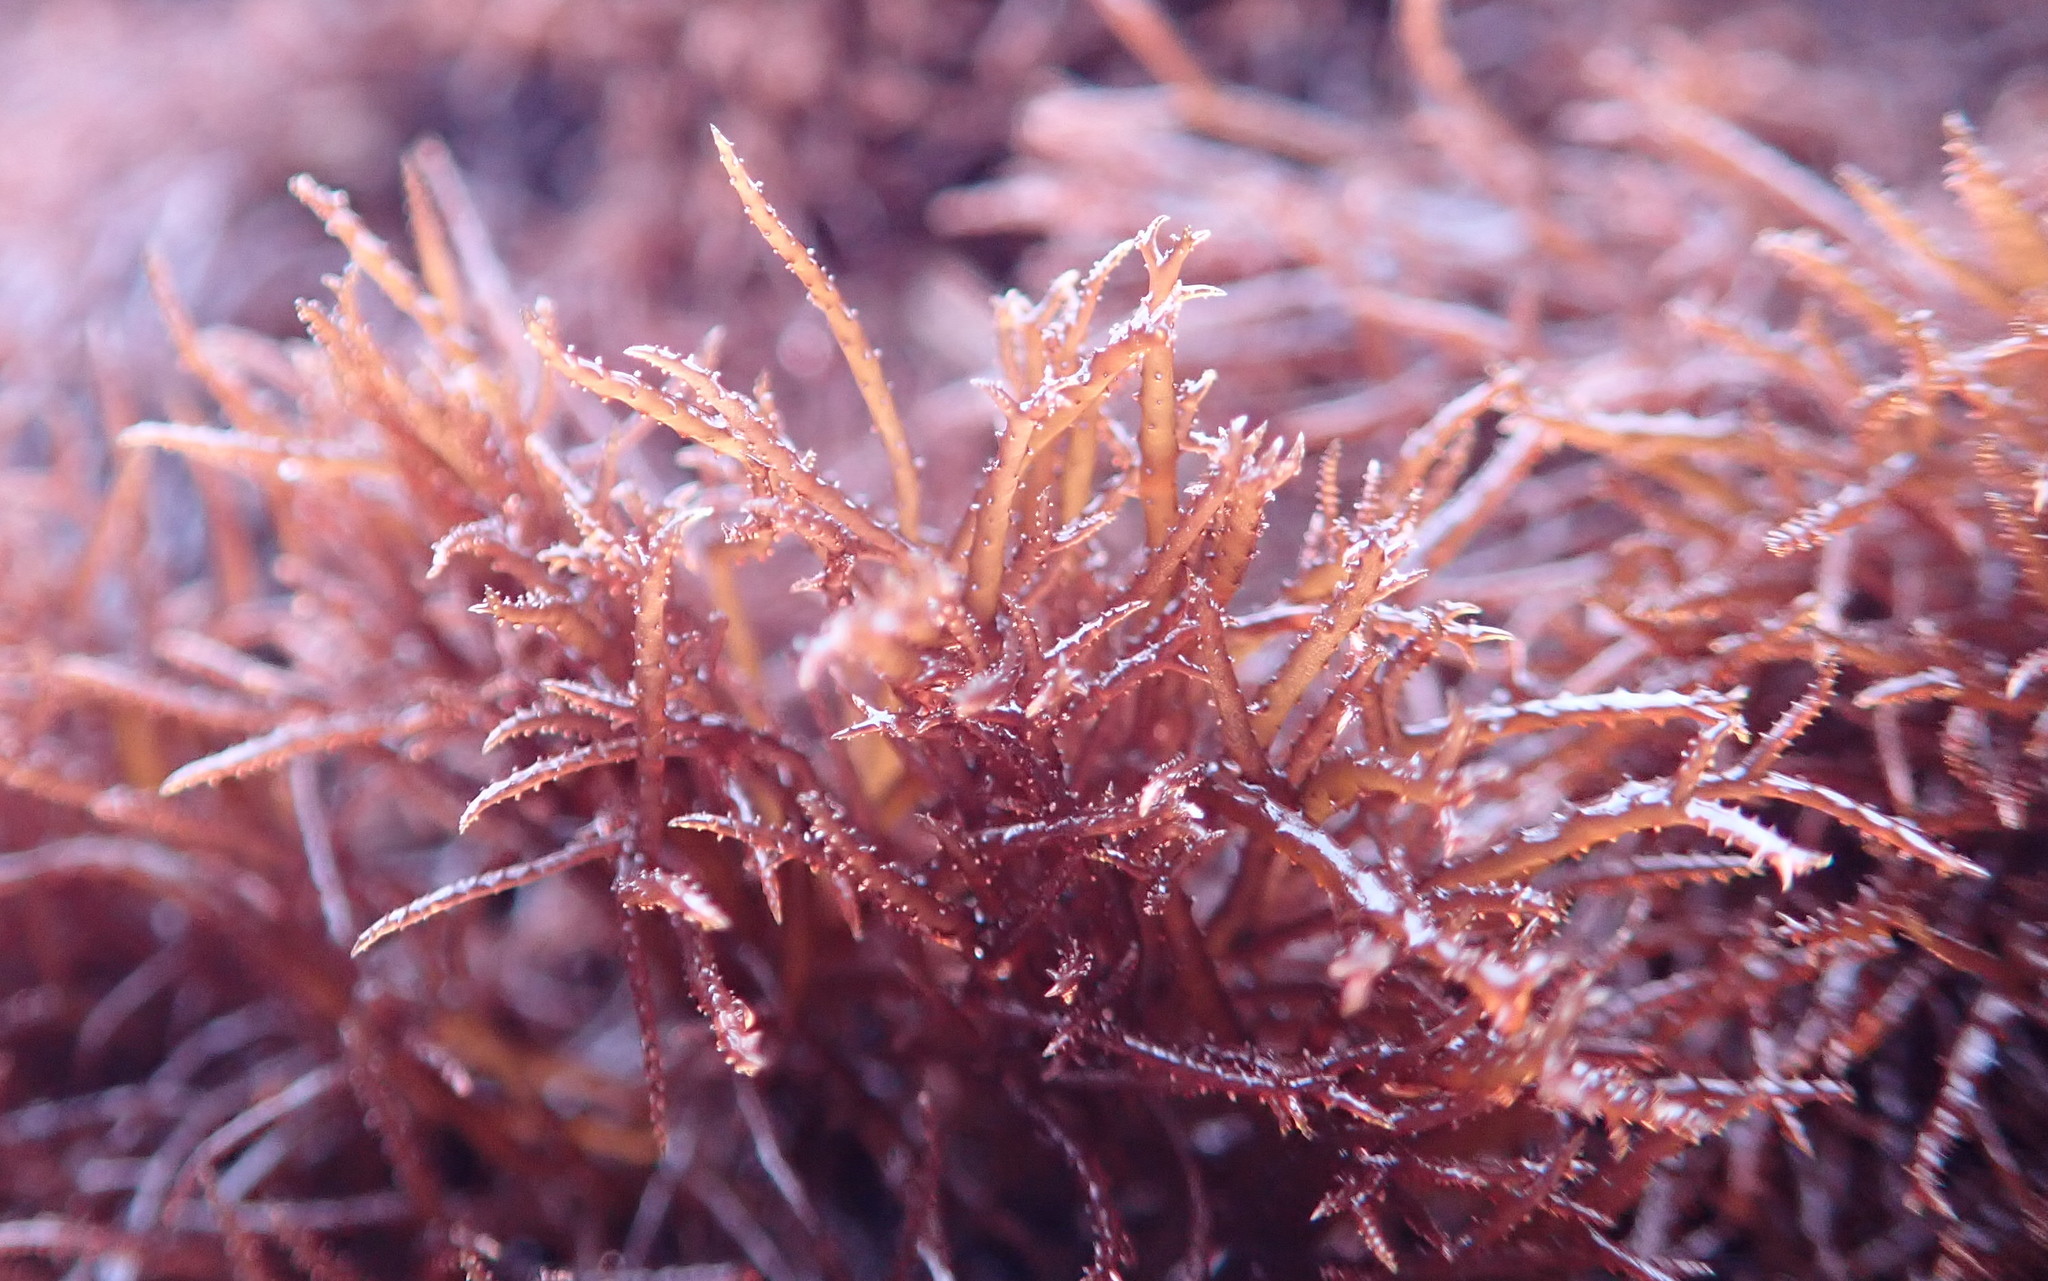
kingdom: Plantae
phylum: Rhodophyta
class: Florideophyceae
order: Gigartinales
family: Endocladiaceae
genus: Endocladia
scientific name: Endocladia muricata
